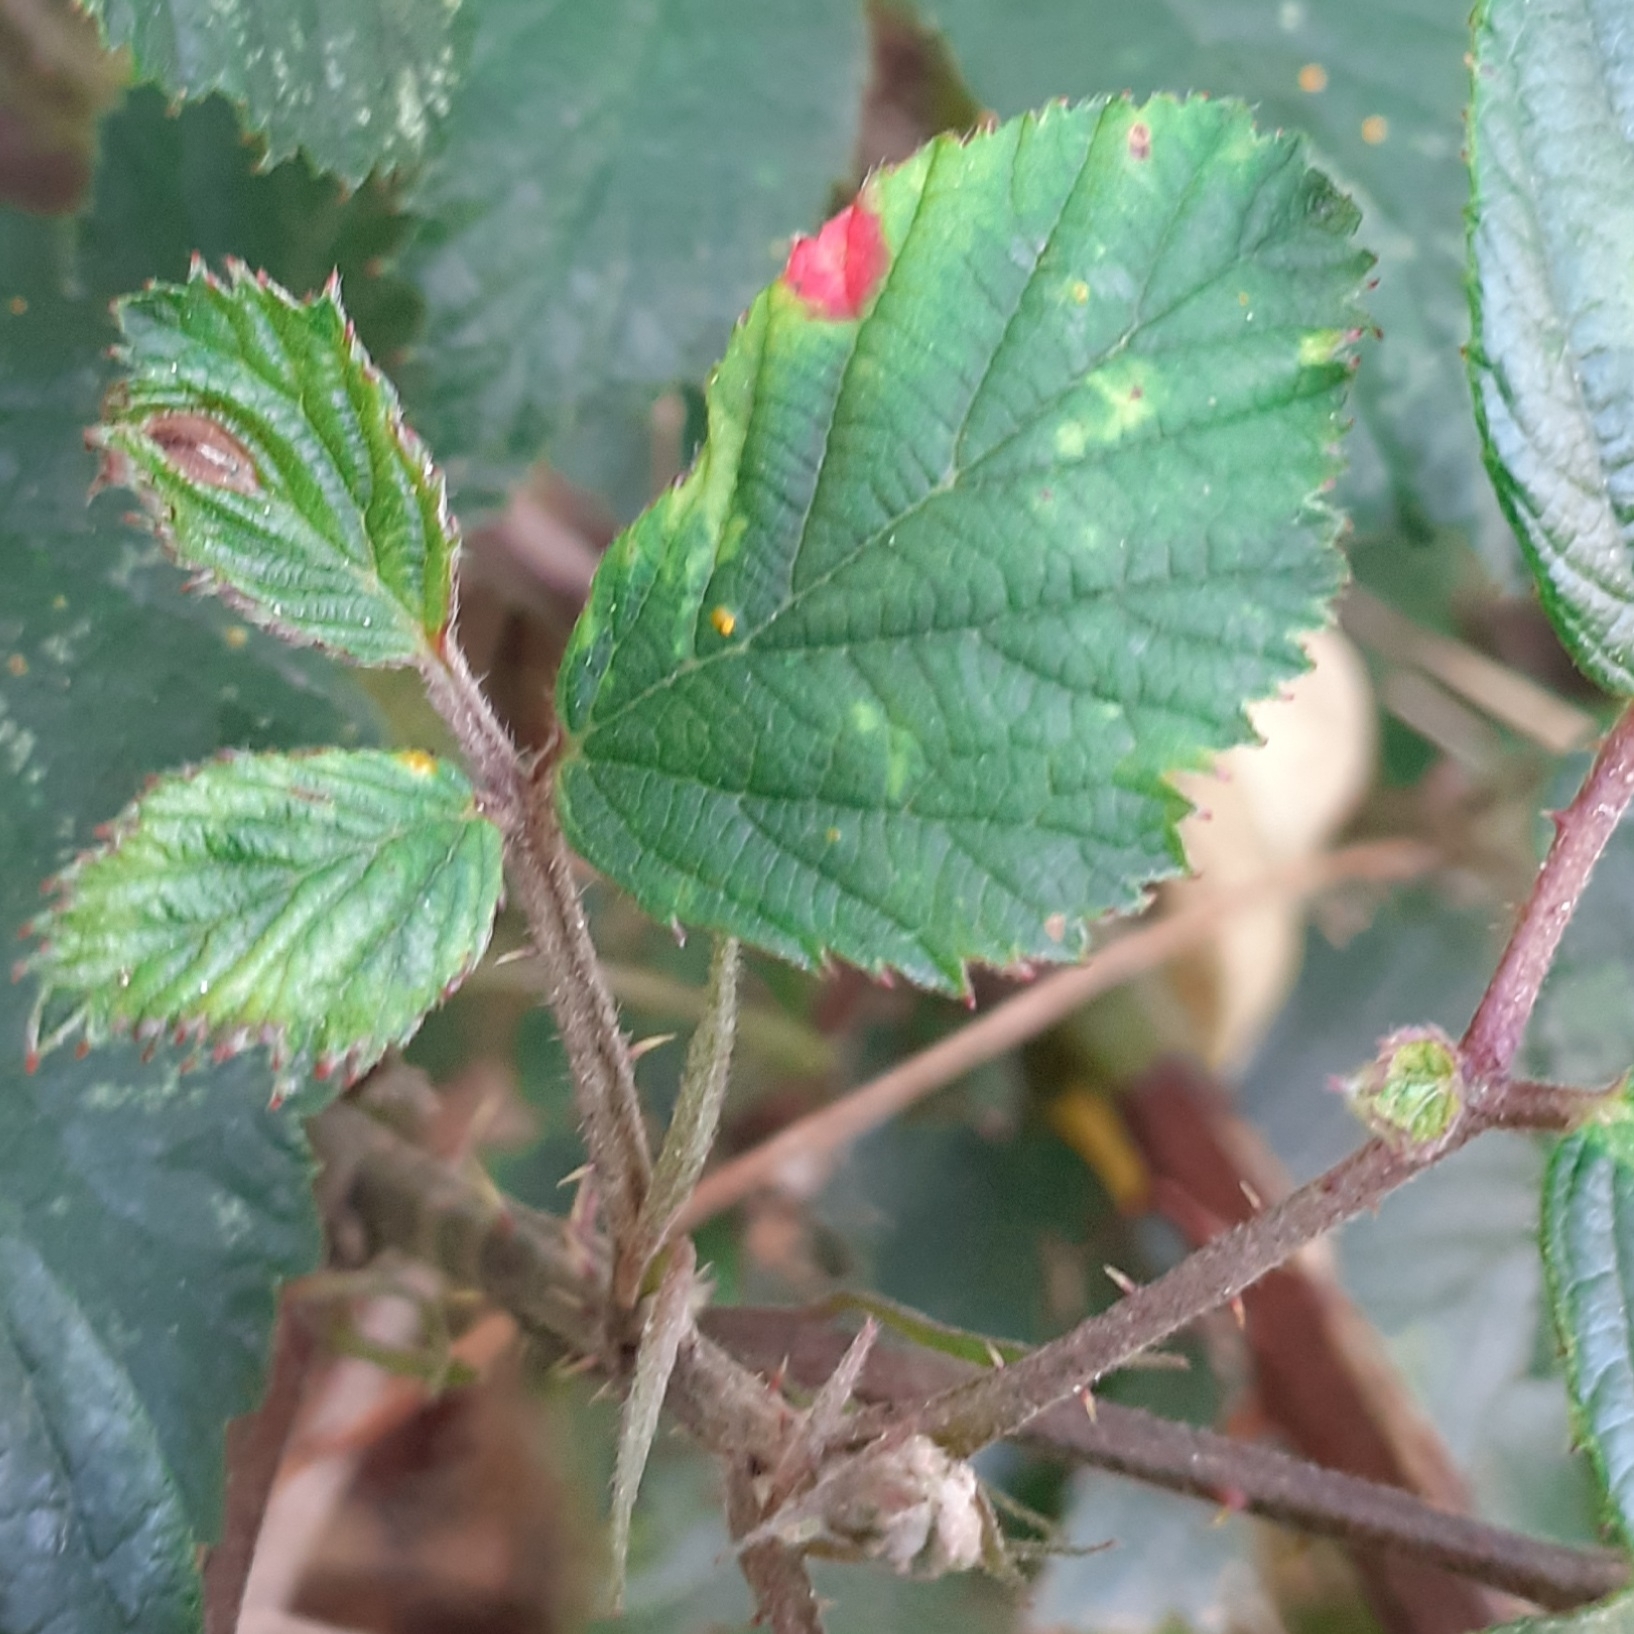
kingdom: Fungi
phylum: Basidiomycota
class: Pucciniomycetes
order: Pucciniales
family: Phragmidiaceae
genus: Phragmidium
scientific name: Phragmidium violaceum
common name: Violet bramble rust
